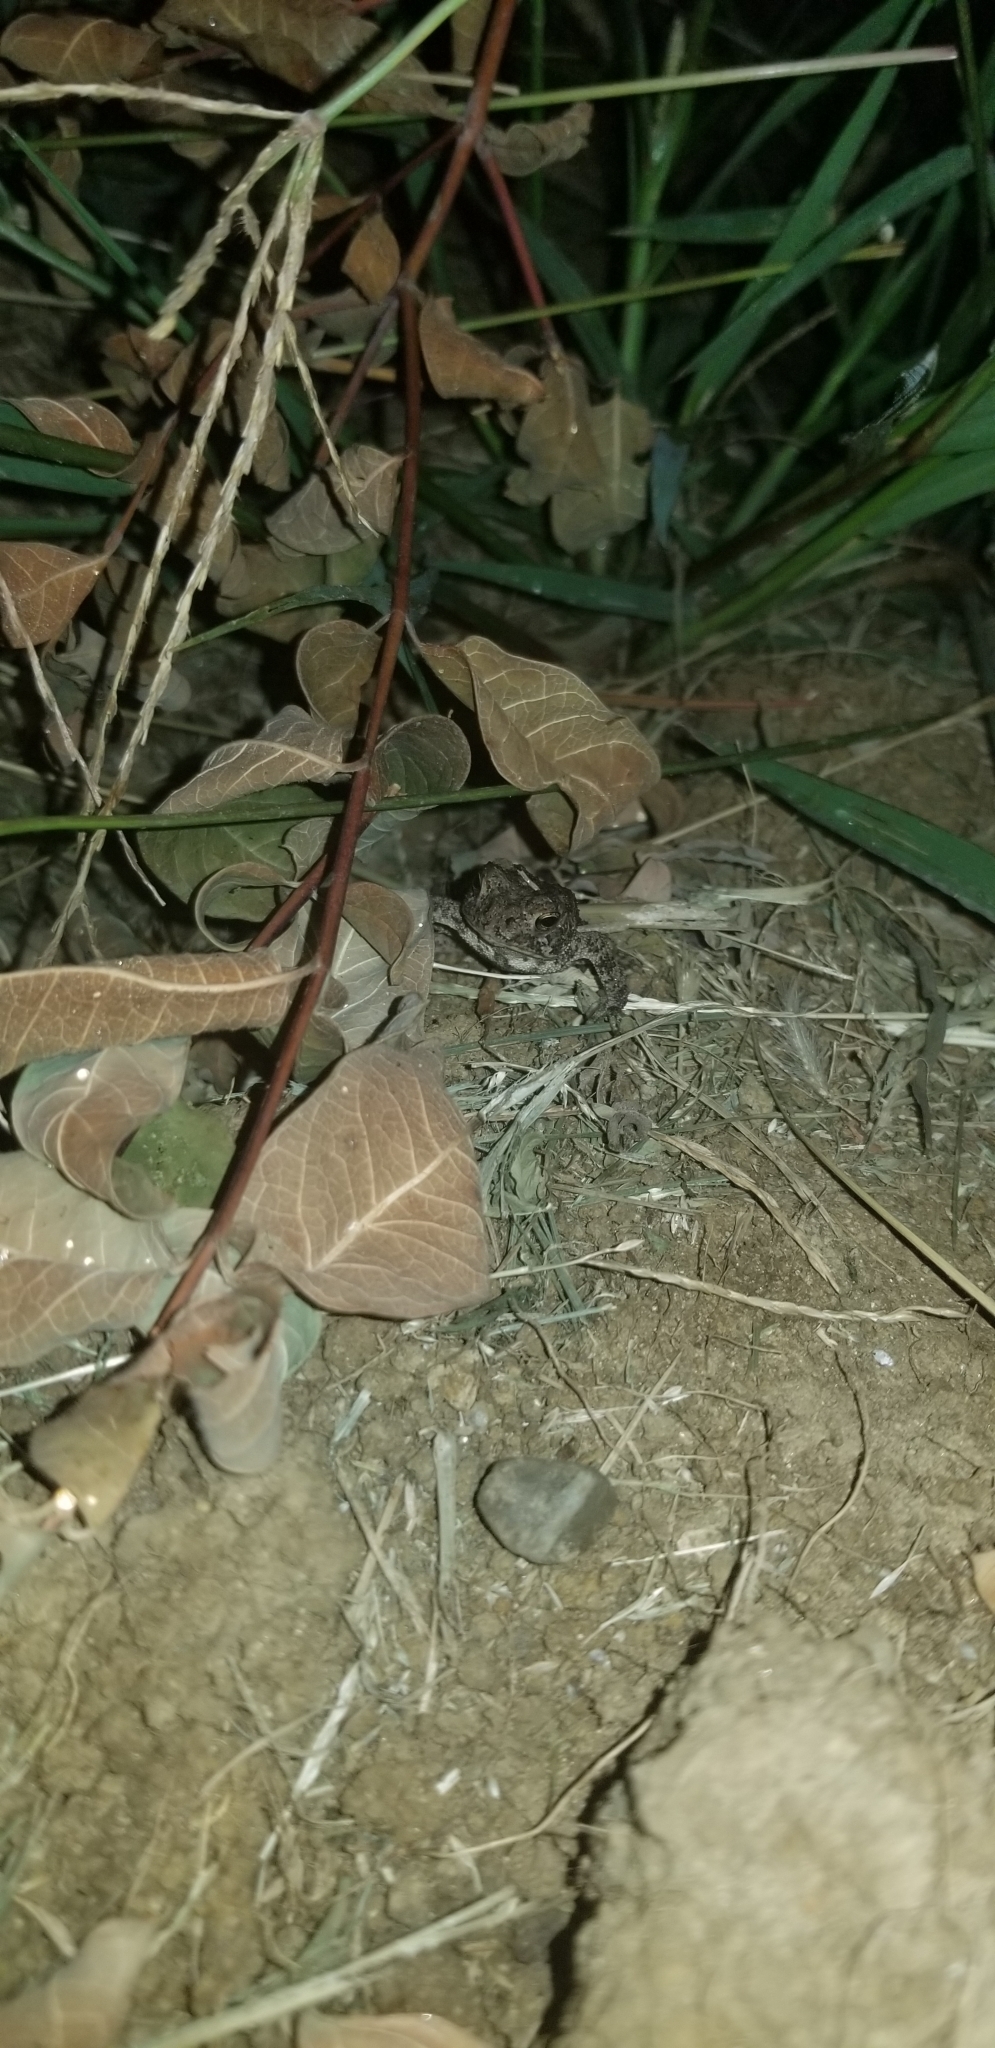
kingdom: Animalia
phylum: Chordata
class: Amphibia
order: Anura
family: Bufonidae
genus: Anaxyrus
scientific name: Anaxyrus woodhousii
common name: Woodhouse's toad
